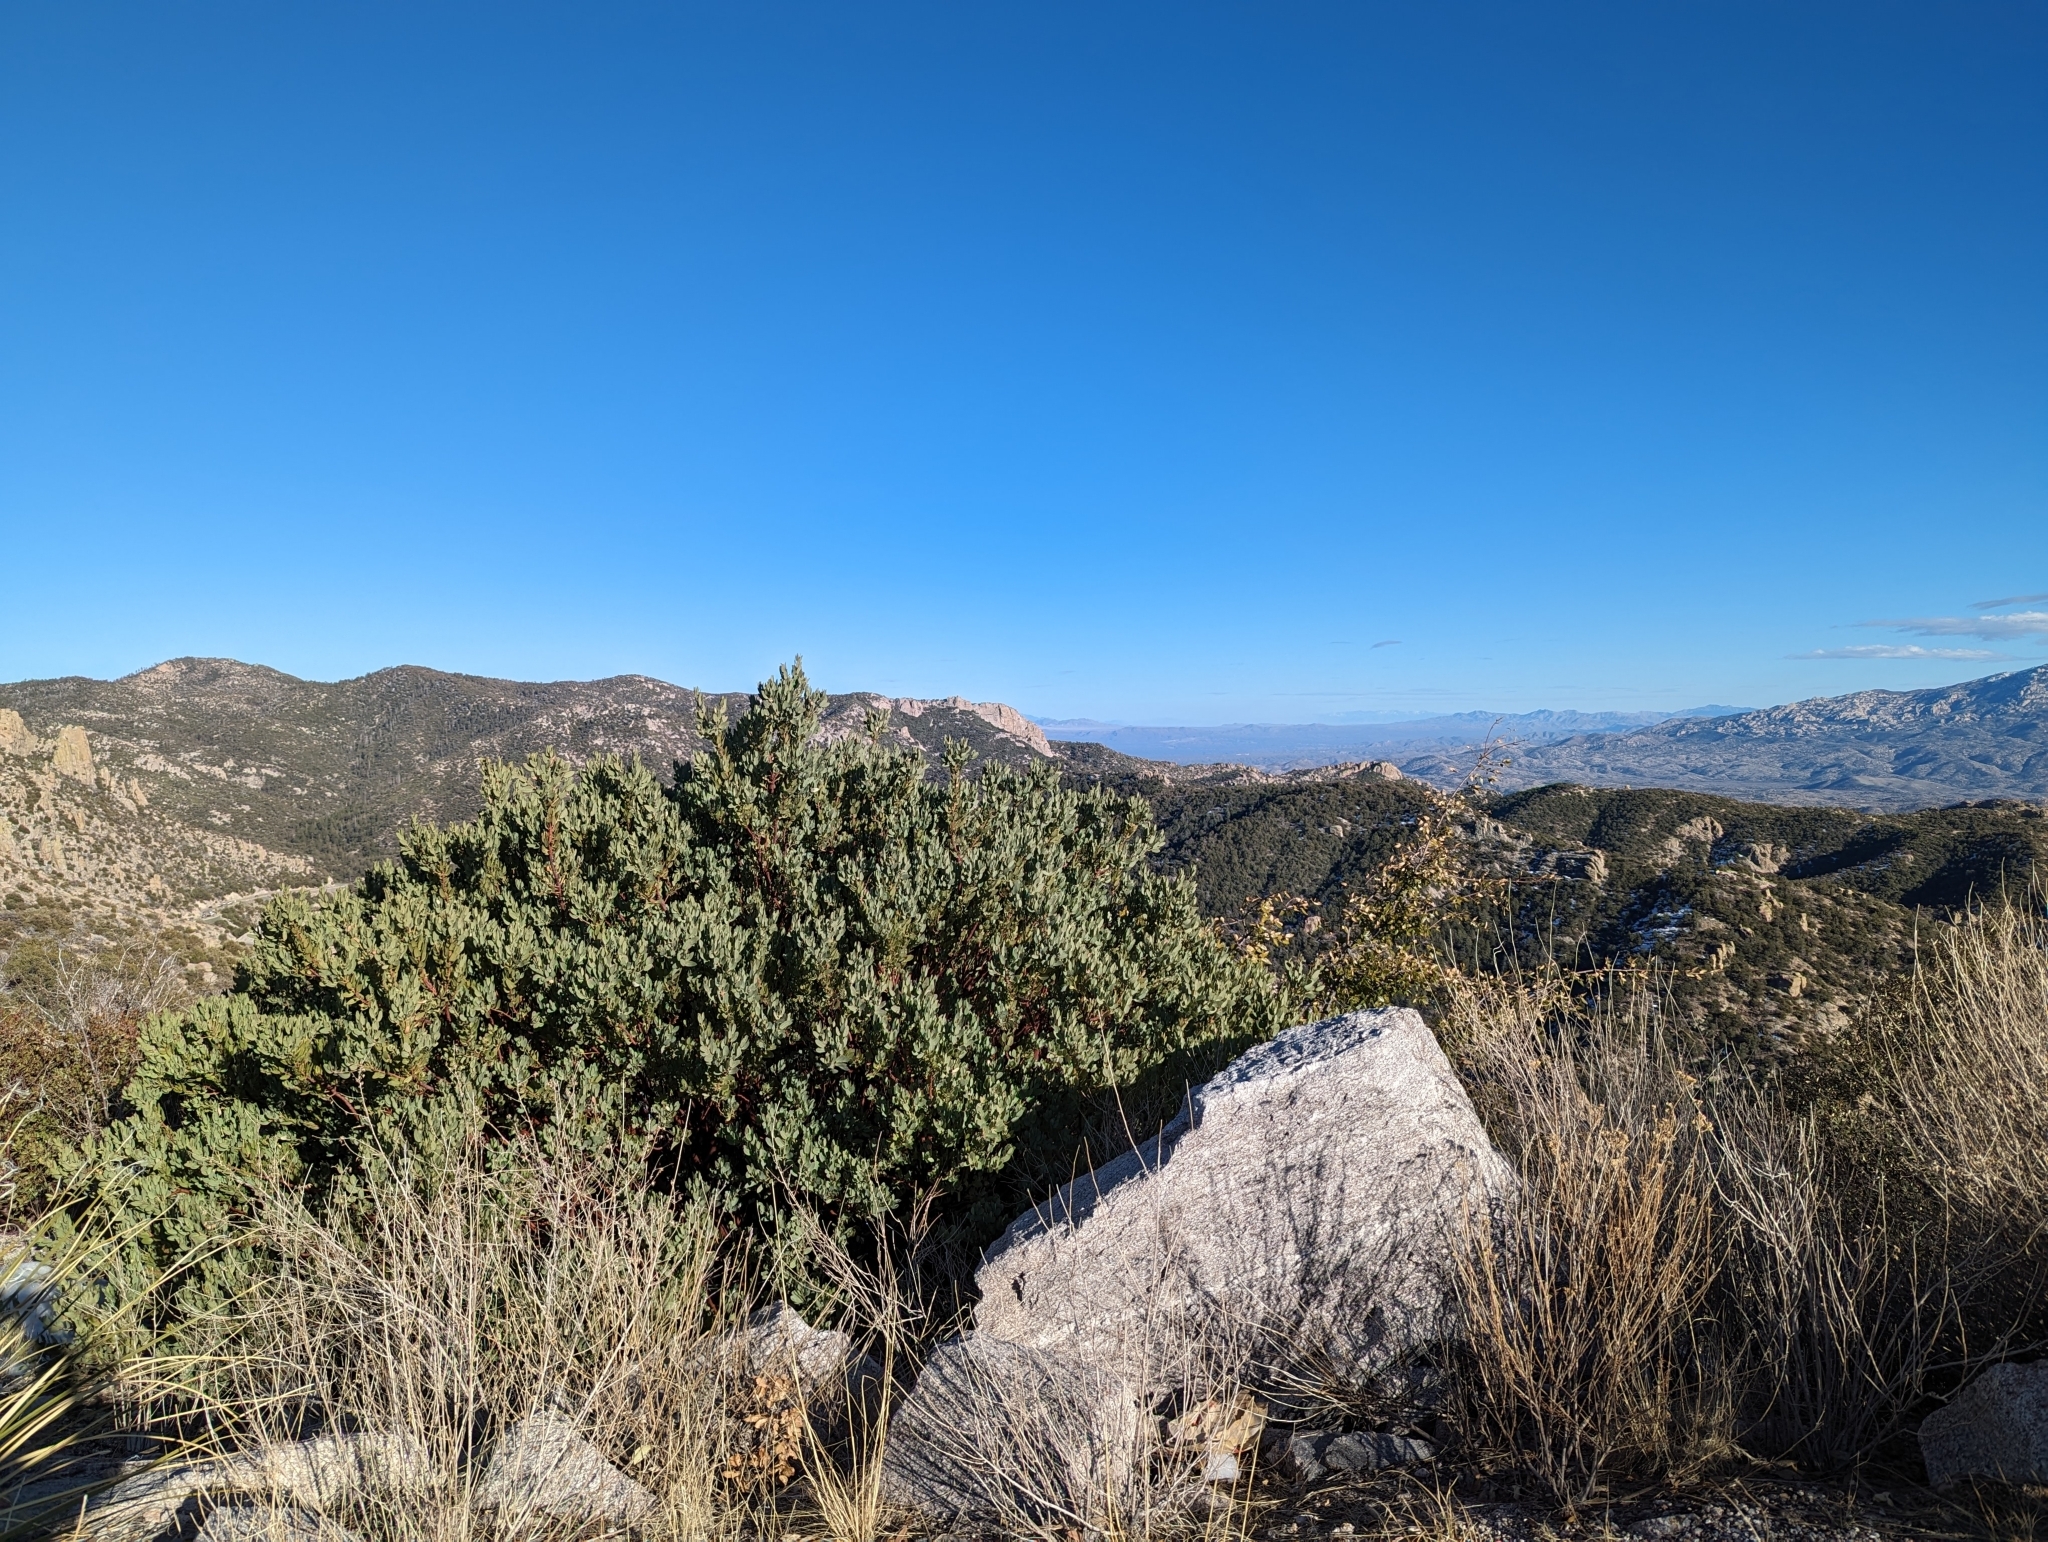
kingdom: Plantae
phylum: Tracheophyta
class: Magnoliopsida
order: Ericales
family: Ericaceae
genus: Arctostaphylos
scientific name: Arctostaphylos pringlei
